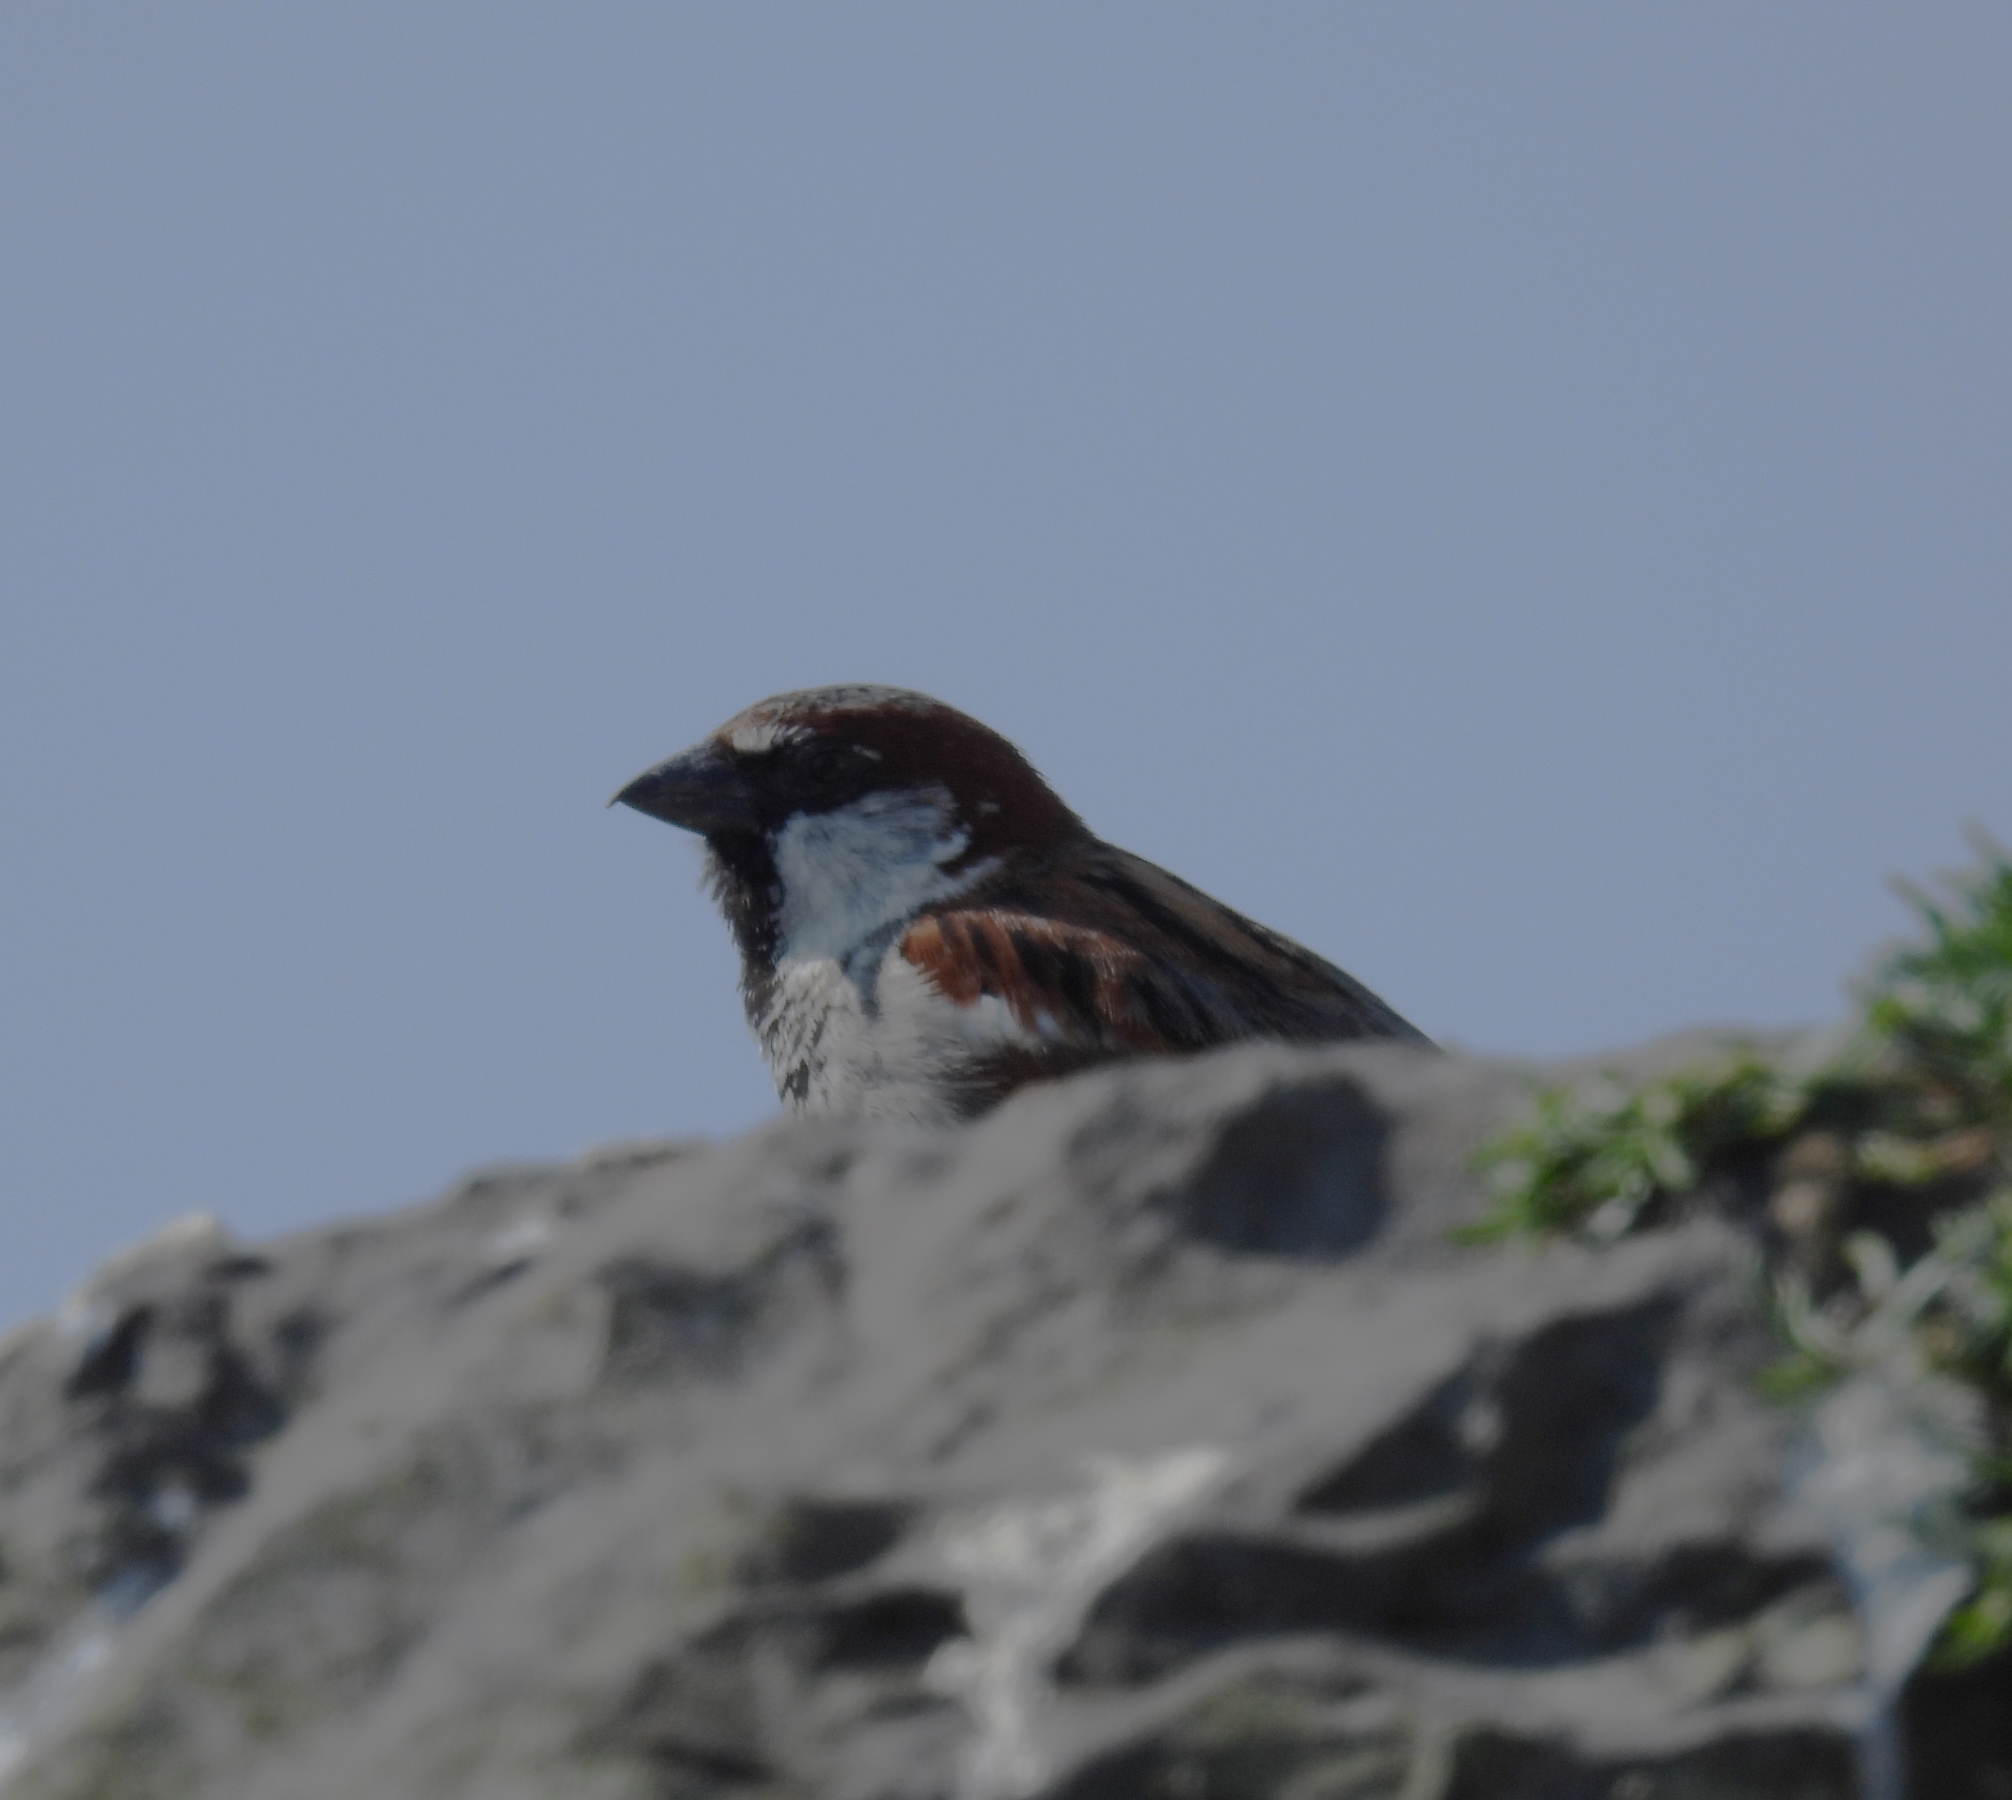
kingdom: Animalia
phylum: Chordata
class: Aves
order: Passeriformes
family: Passeridae
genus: Passer
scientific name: Passer domesticus
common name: House sparrow
